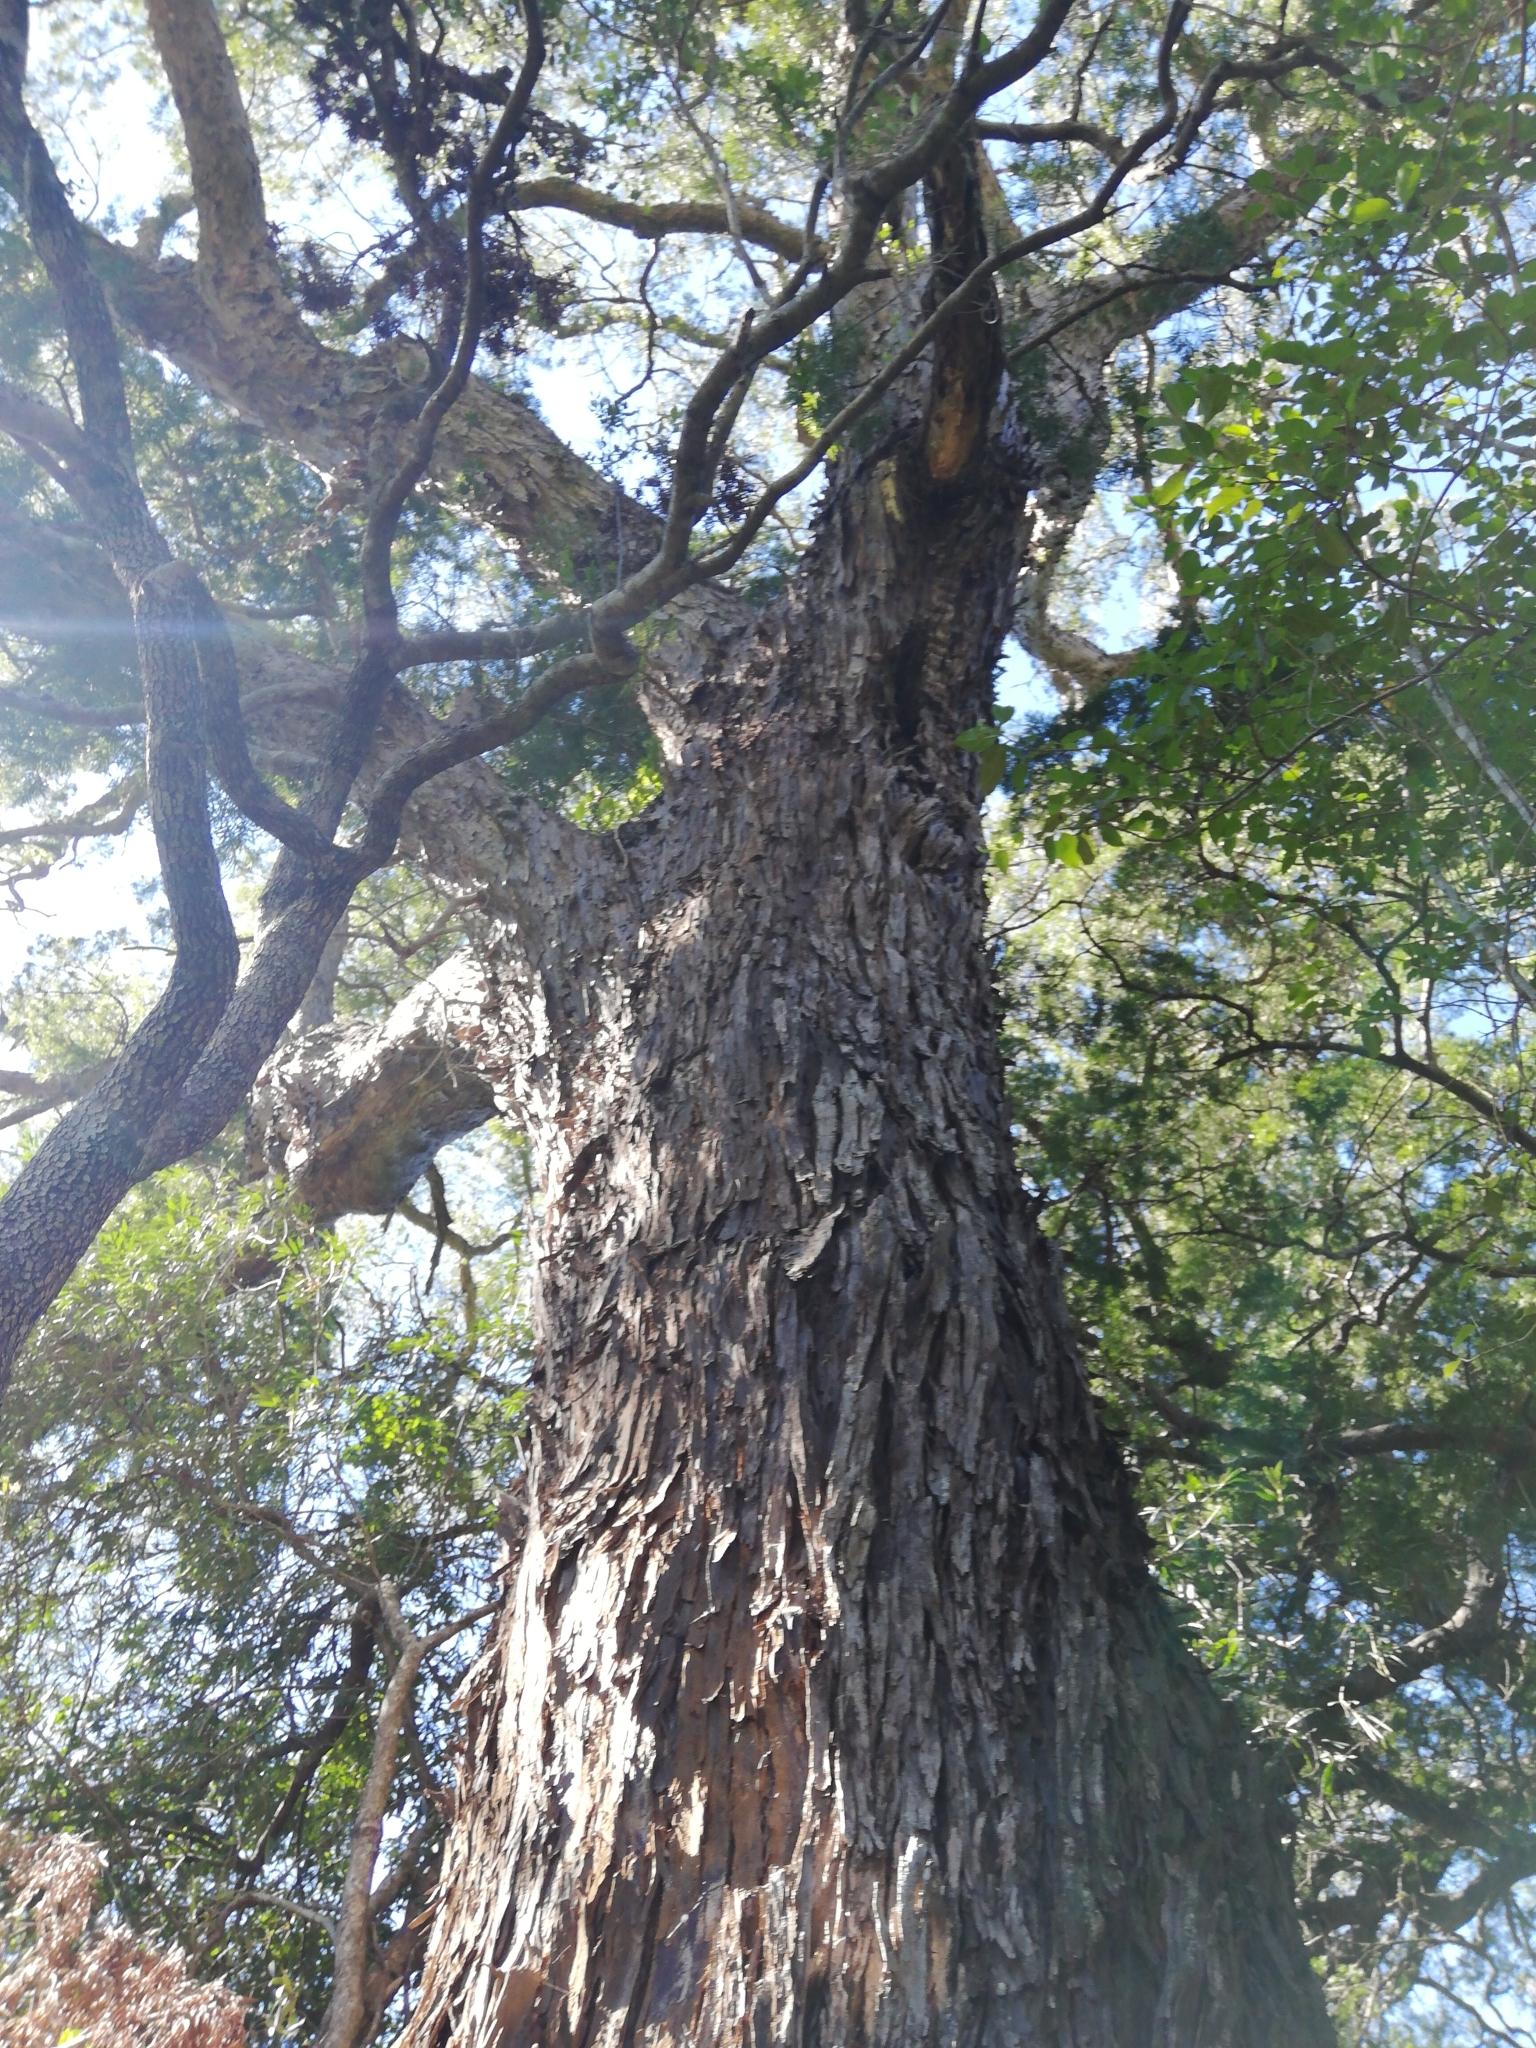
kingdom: Plantae
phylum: Tracheophyta
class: Pinopsida
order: Pinales
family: Podocarpaceae
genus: Afrocarpus
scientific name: Afrocarpus falcatus
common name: Bastard yellowwood
